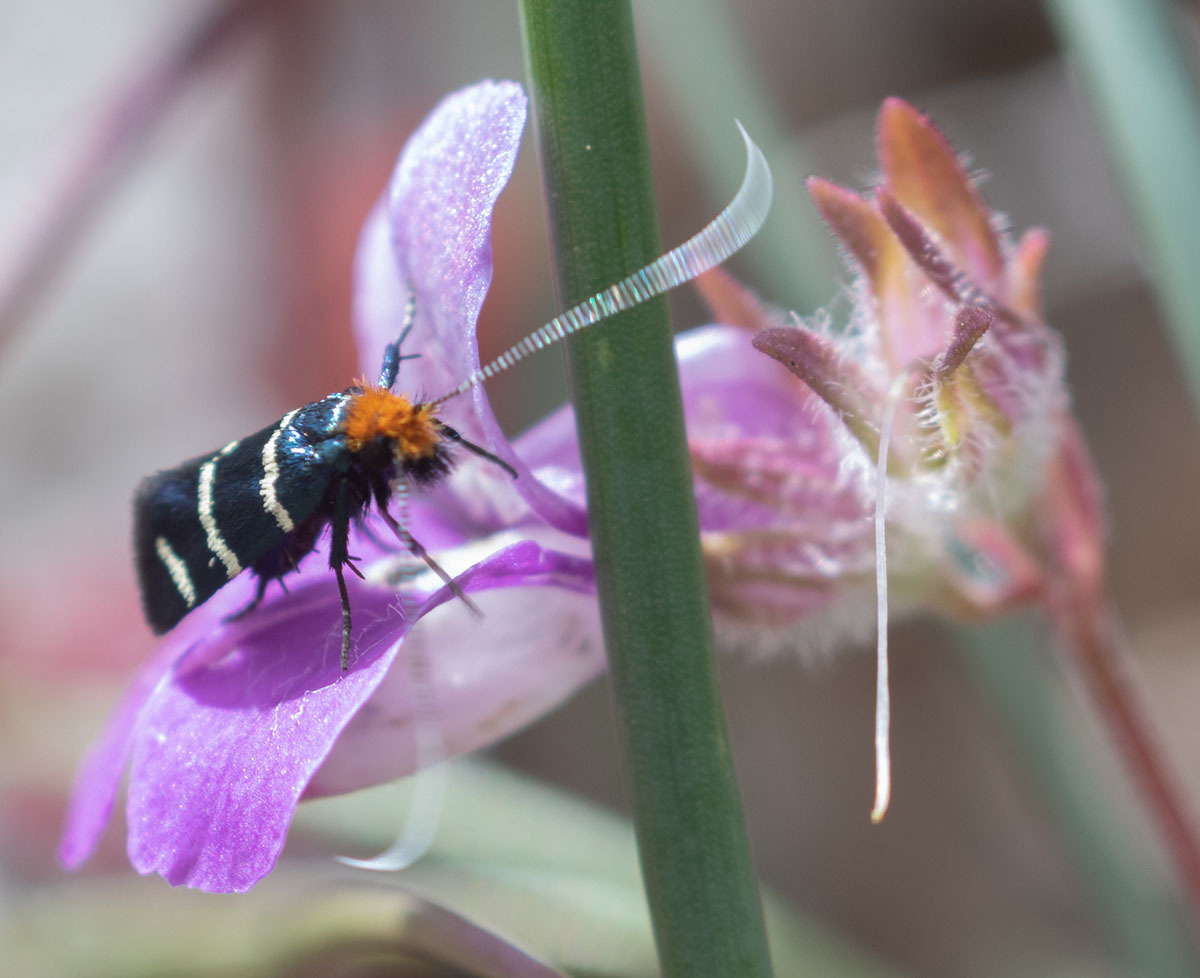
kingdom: Animalia
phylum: Arthropoda
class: Insecta
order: Lepidoptera
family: Adelidae
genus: Adela
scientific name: Adela trigrapha
